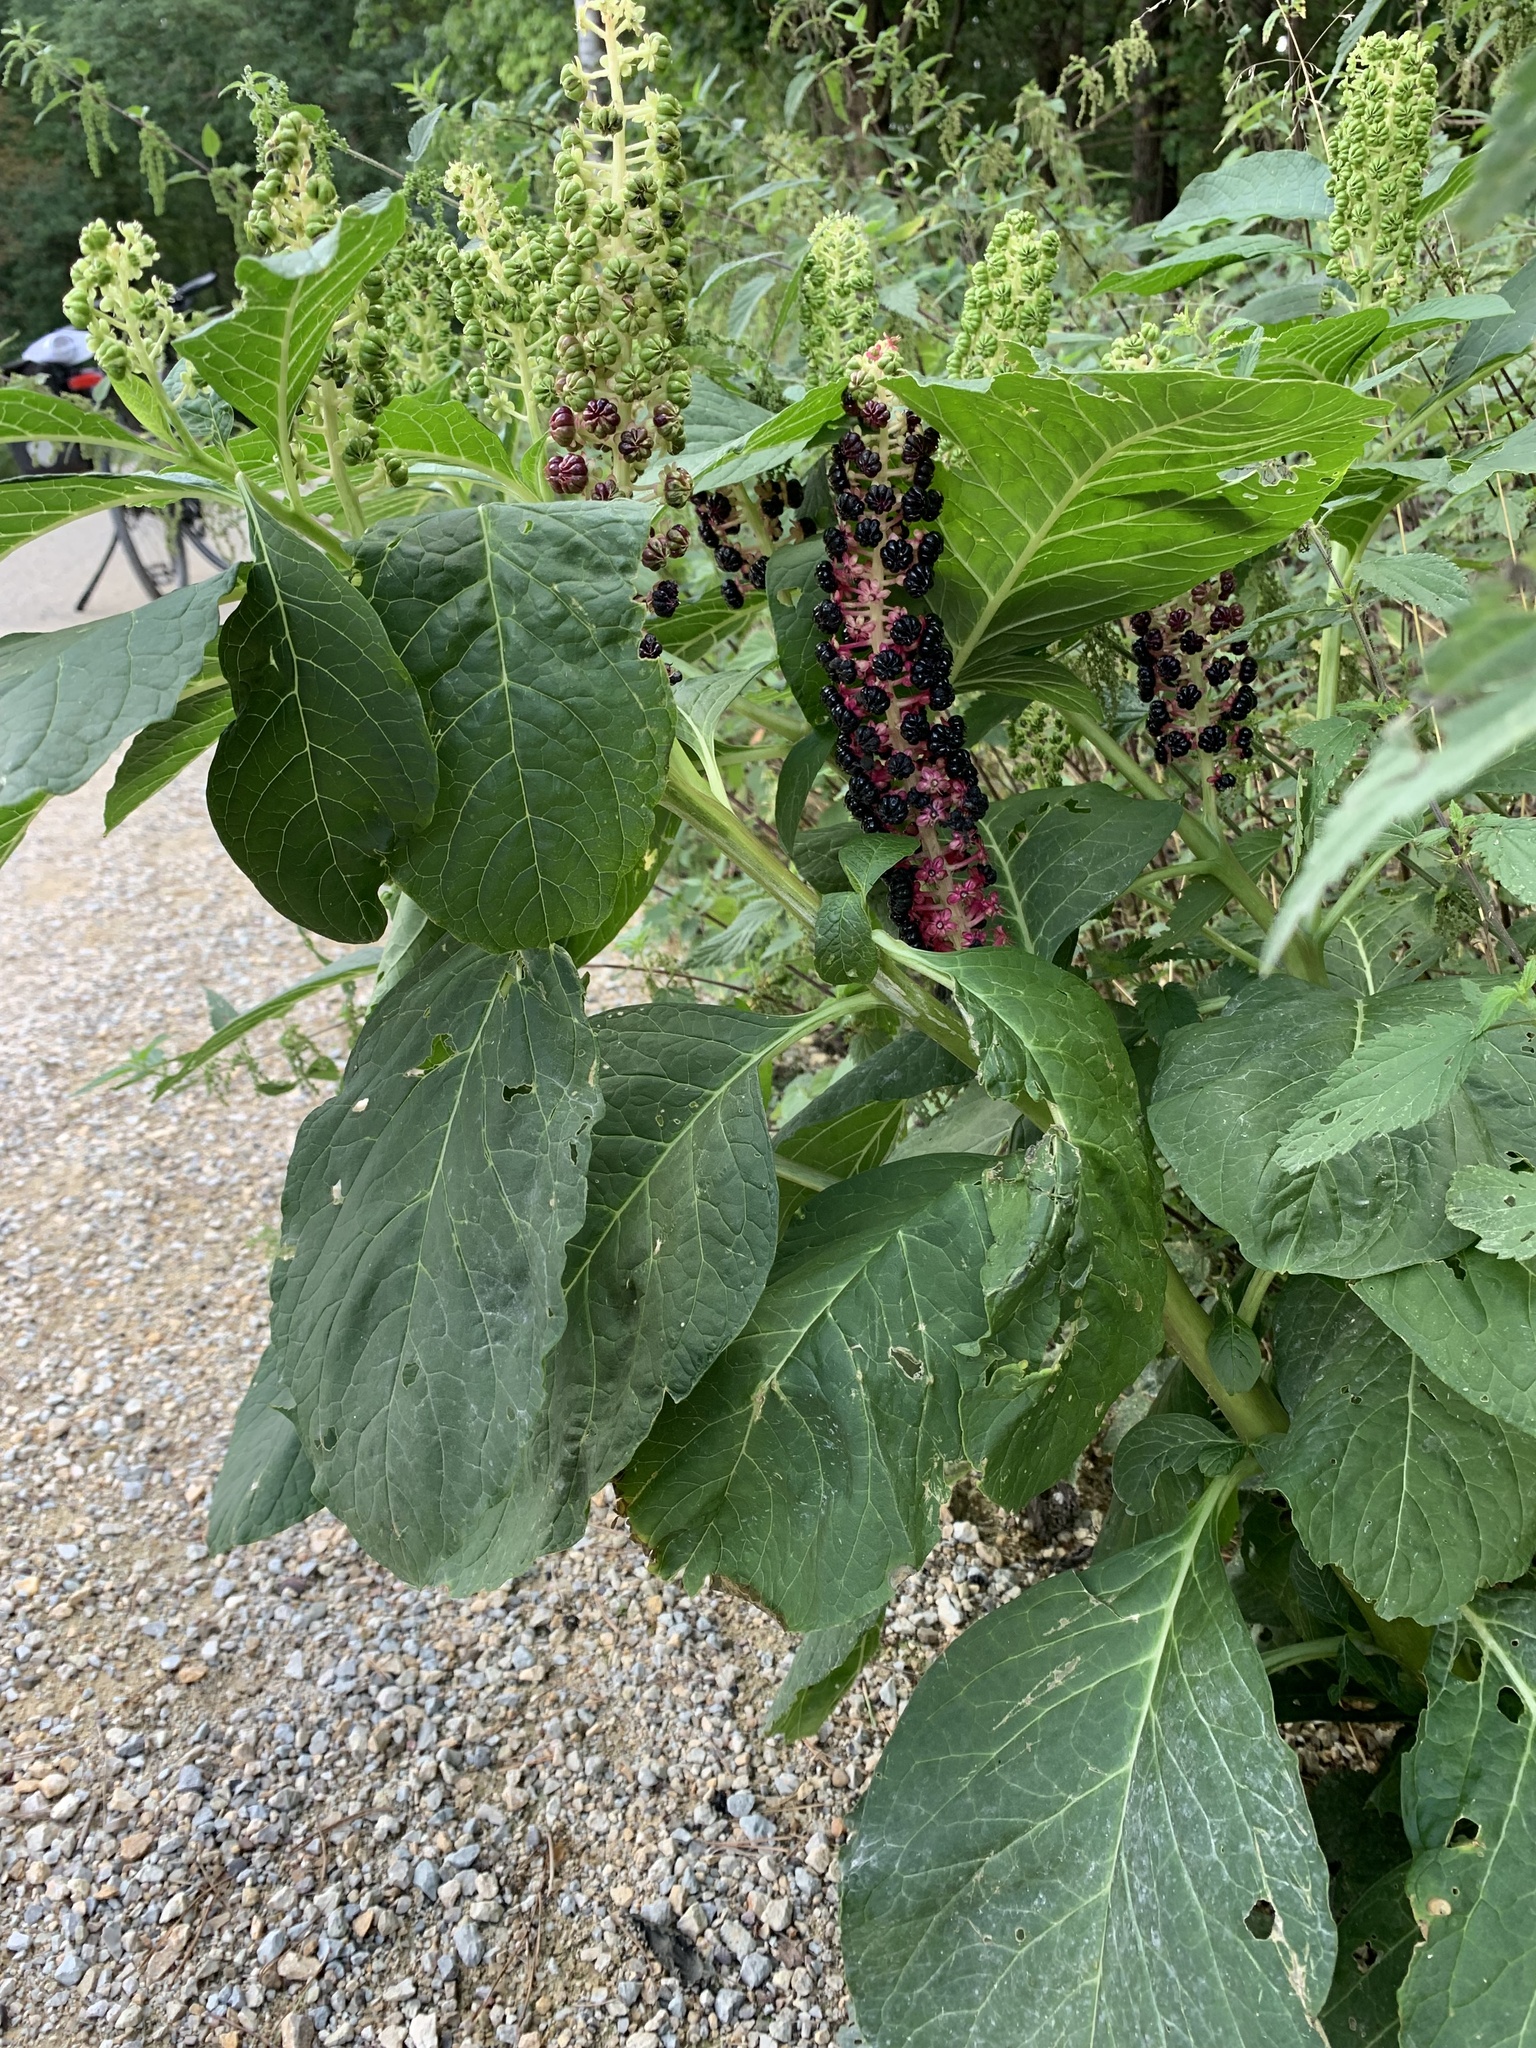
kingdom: Plantae
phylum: Tracheophyta
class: Magnoliopsida
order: Caryophyllales
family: Phytolaccaceae
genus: Phytolacca
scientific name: Phytolacca acinosa
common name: Indian pokeweed
